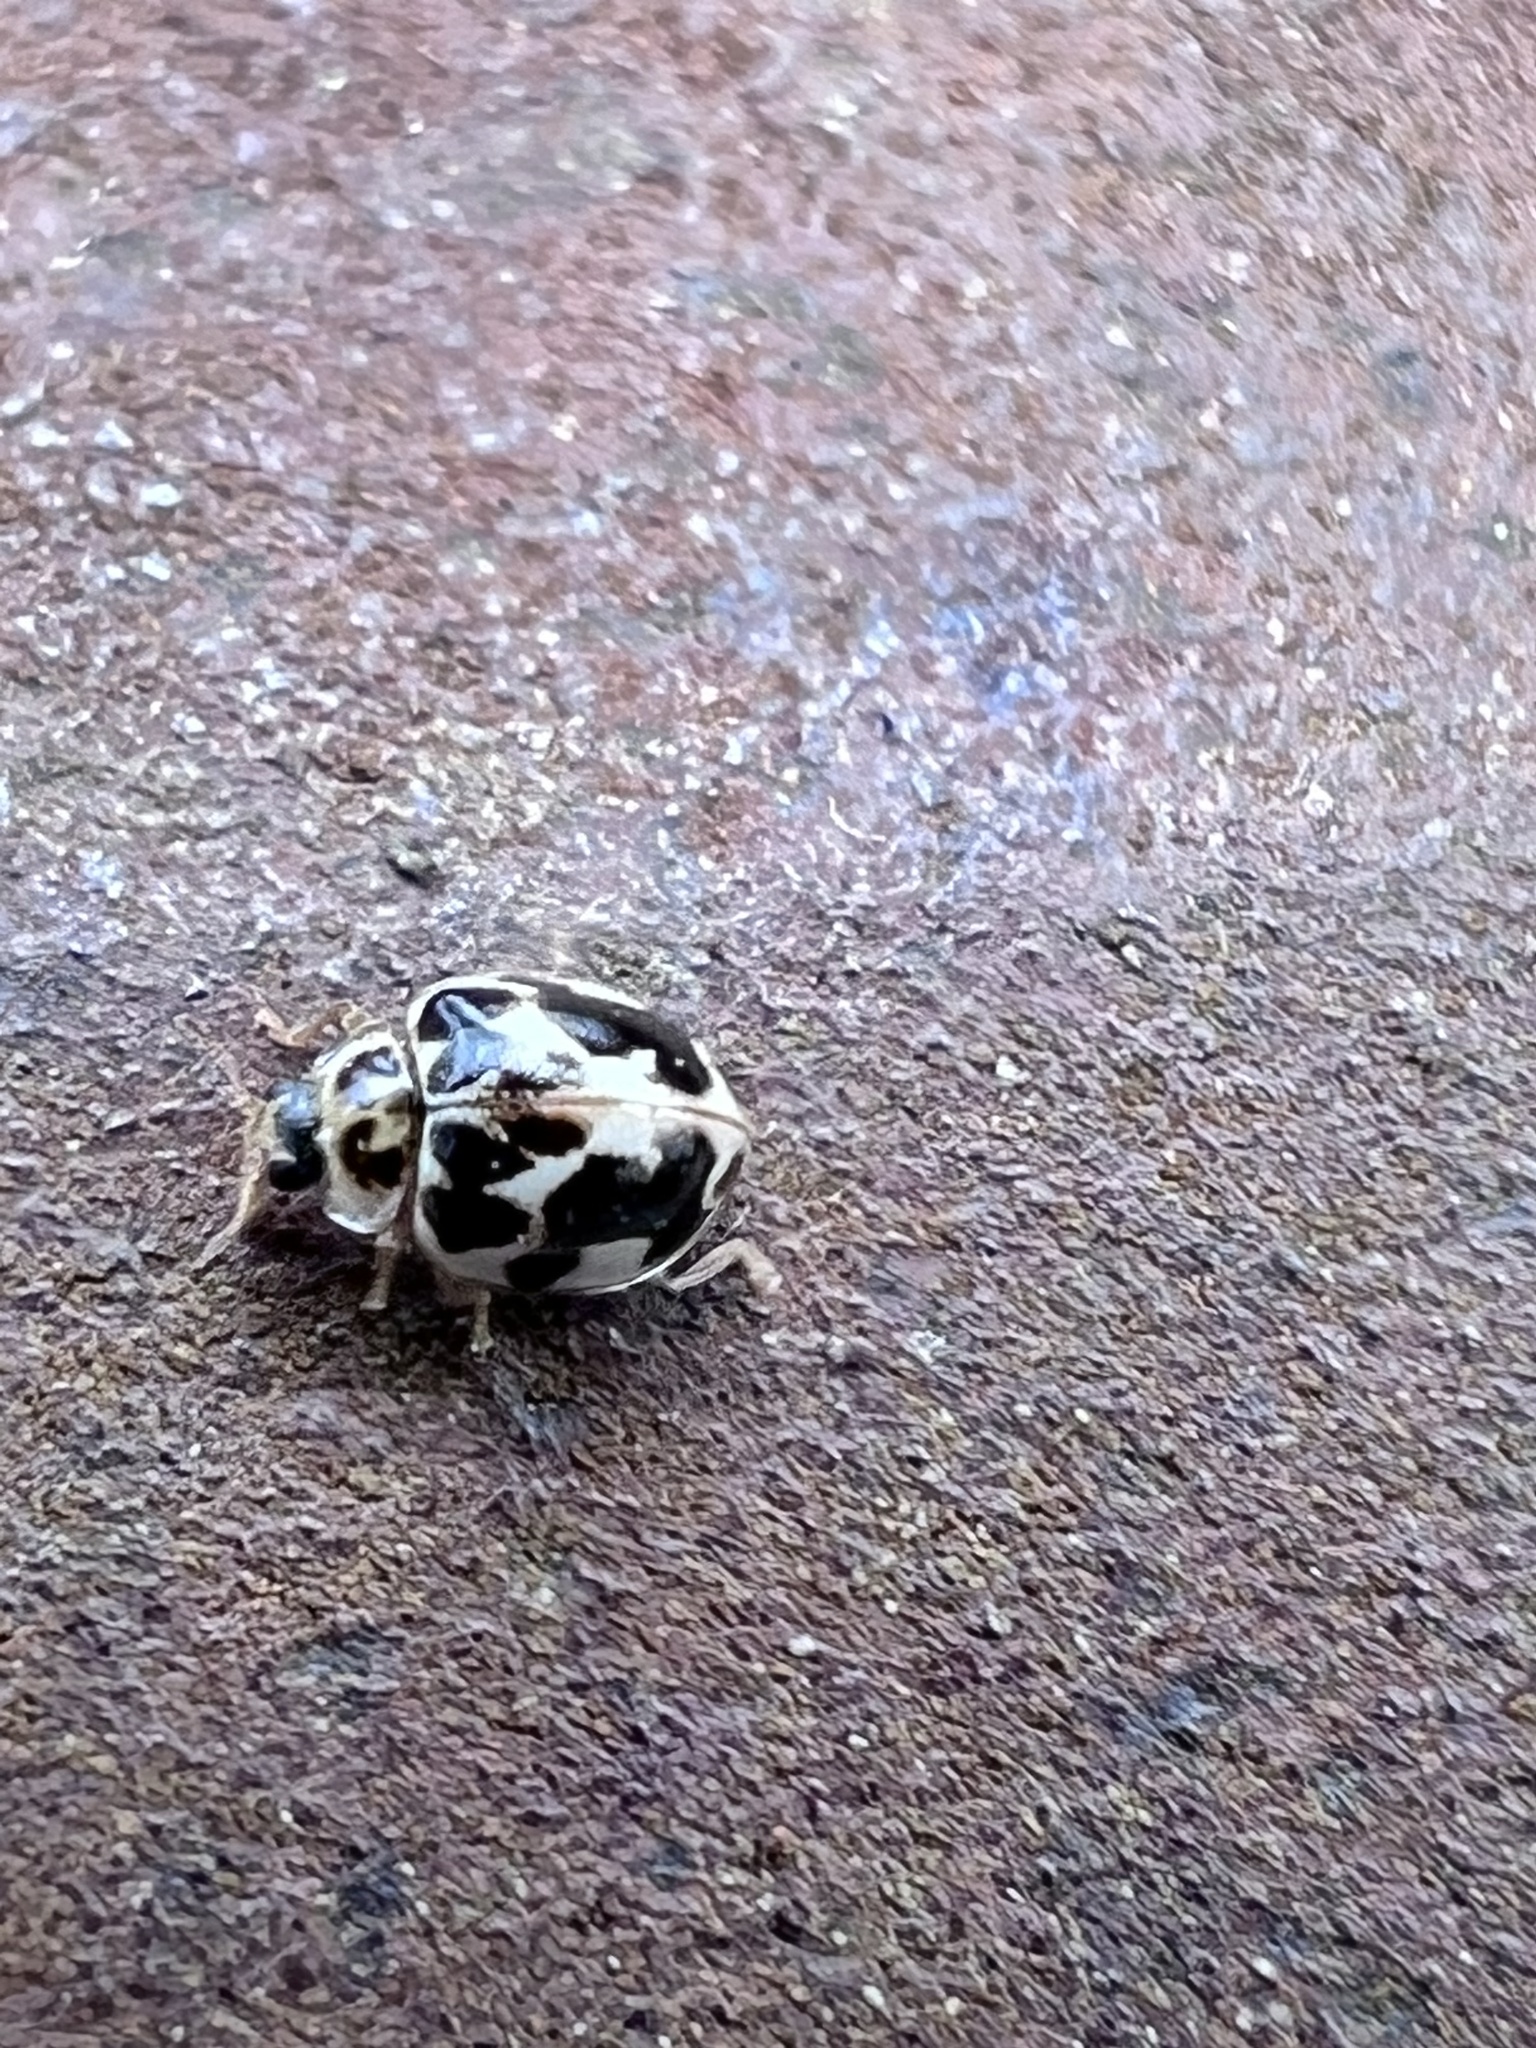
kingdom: Animalia
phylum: Arthropoda
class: Insecta
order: Coleoptera
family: Coccinellidae
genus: Psyllobora
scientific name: Psyllobora vigintimaculata
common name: Ladybird beetle
